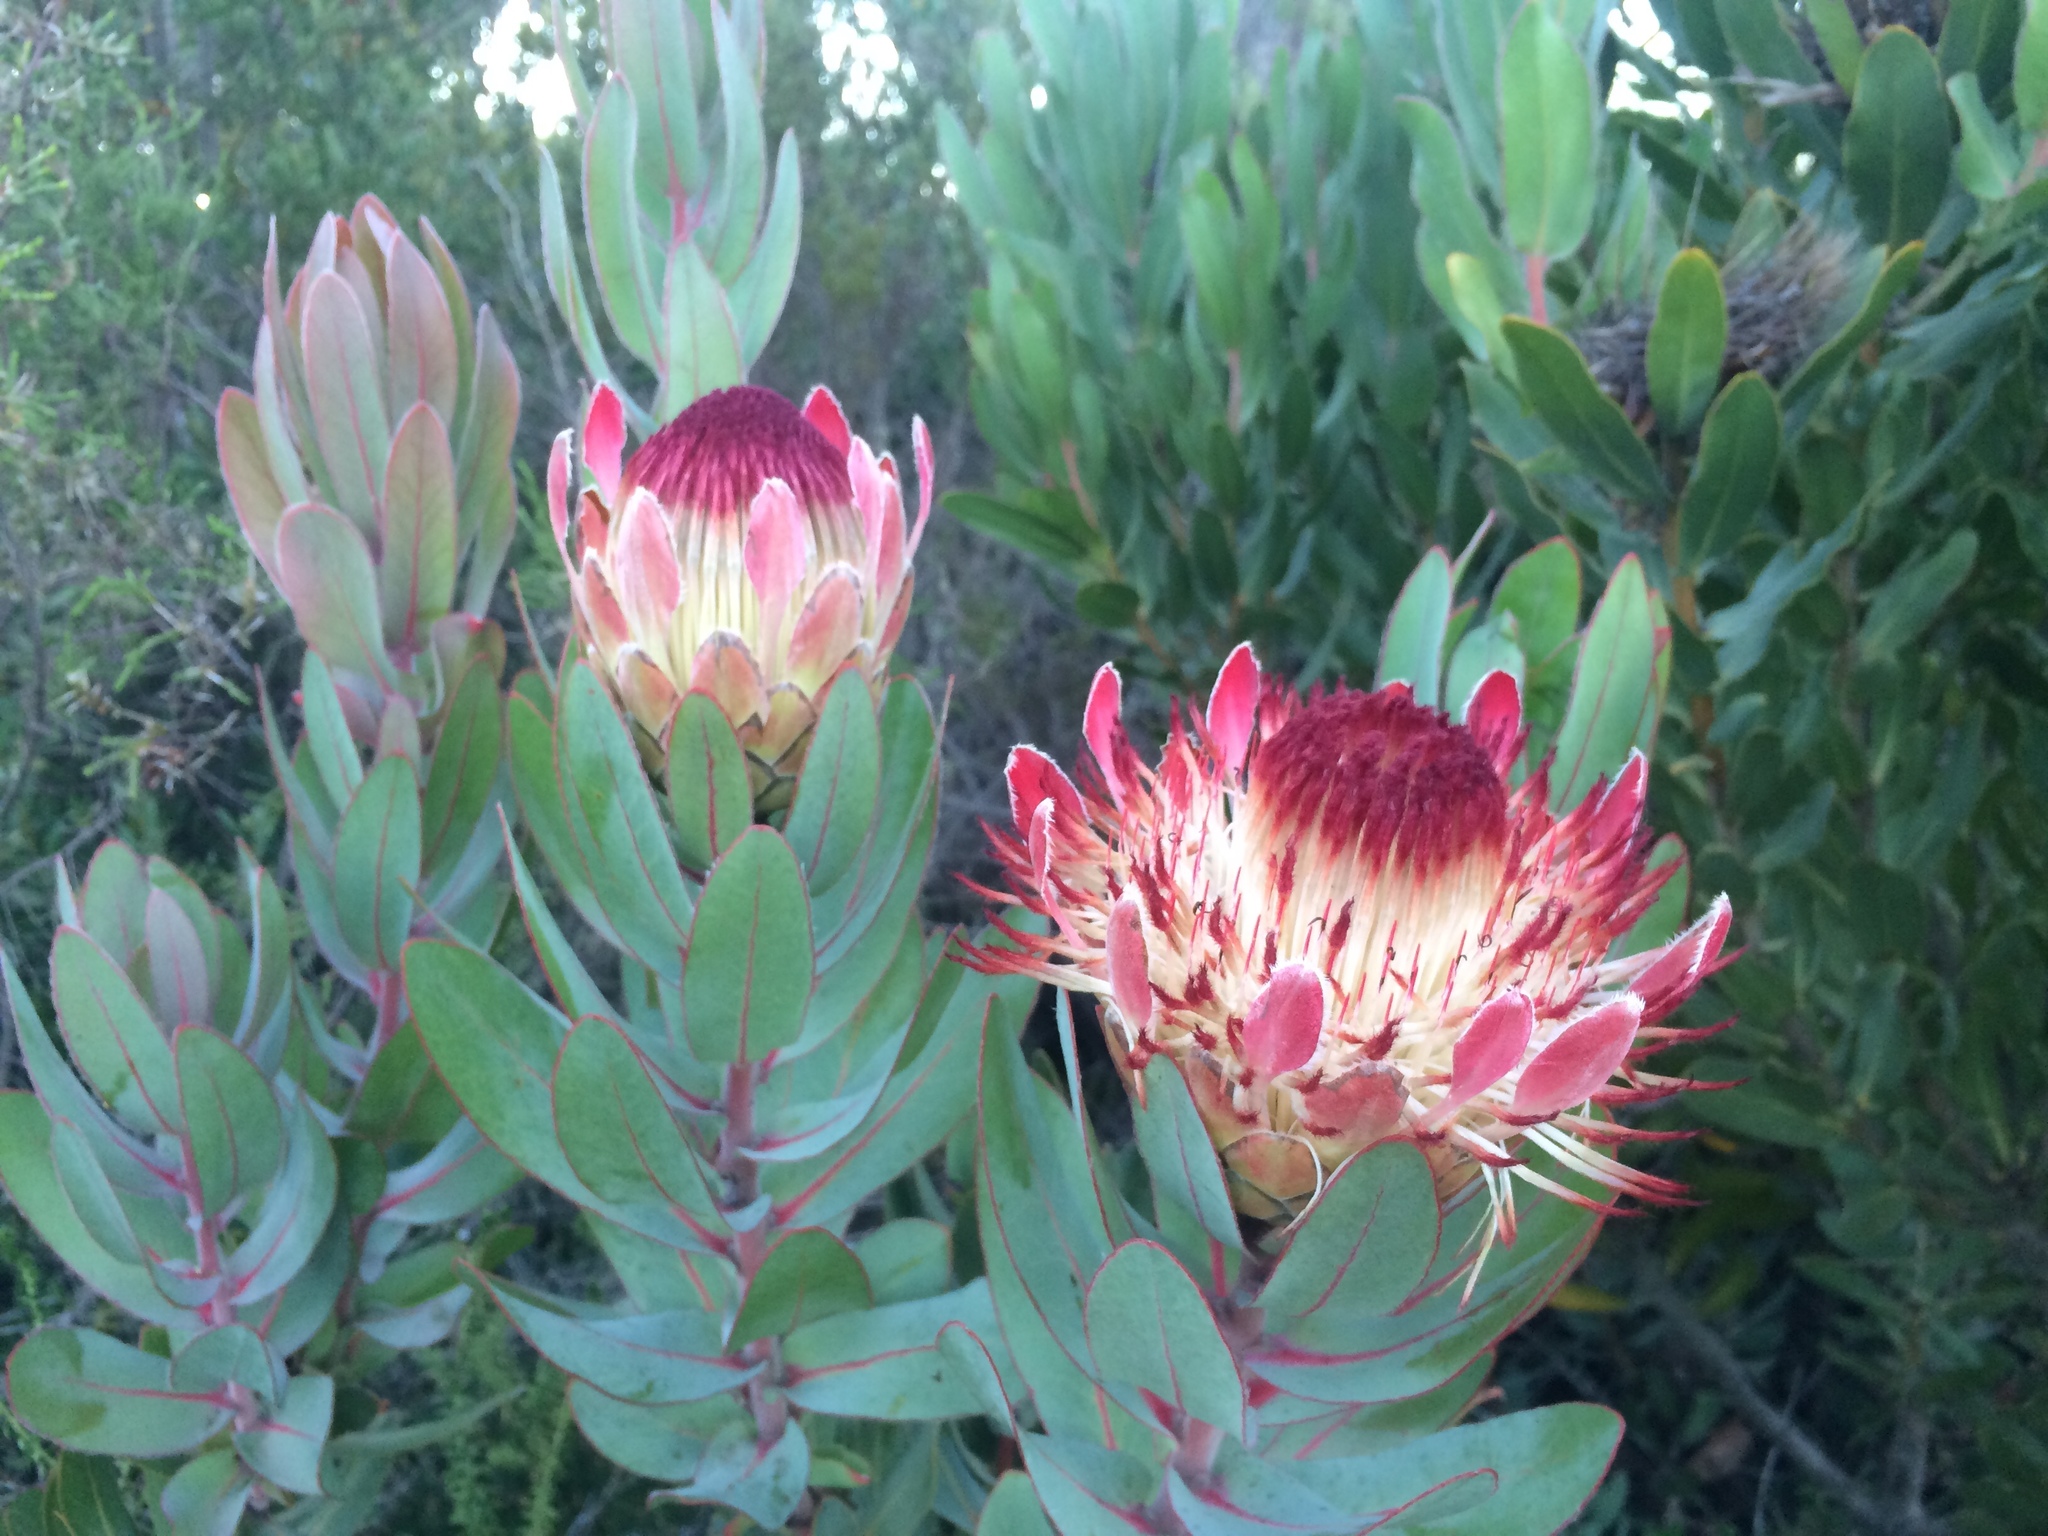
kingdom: Plantae
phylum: Tracheophyta
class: Magnoliopsida
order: Proteales
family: Proteaceae
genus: Protea
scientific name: Protea eximia
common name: Broad-leaved sugarbush
